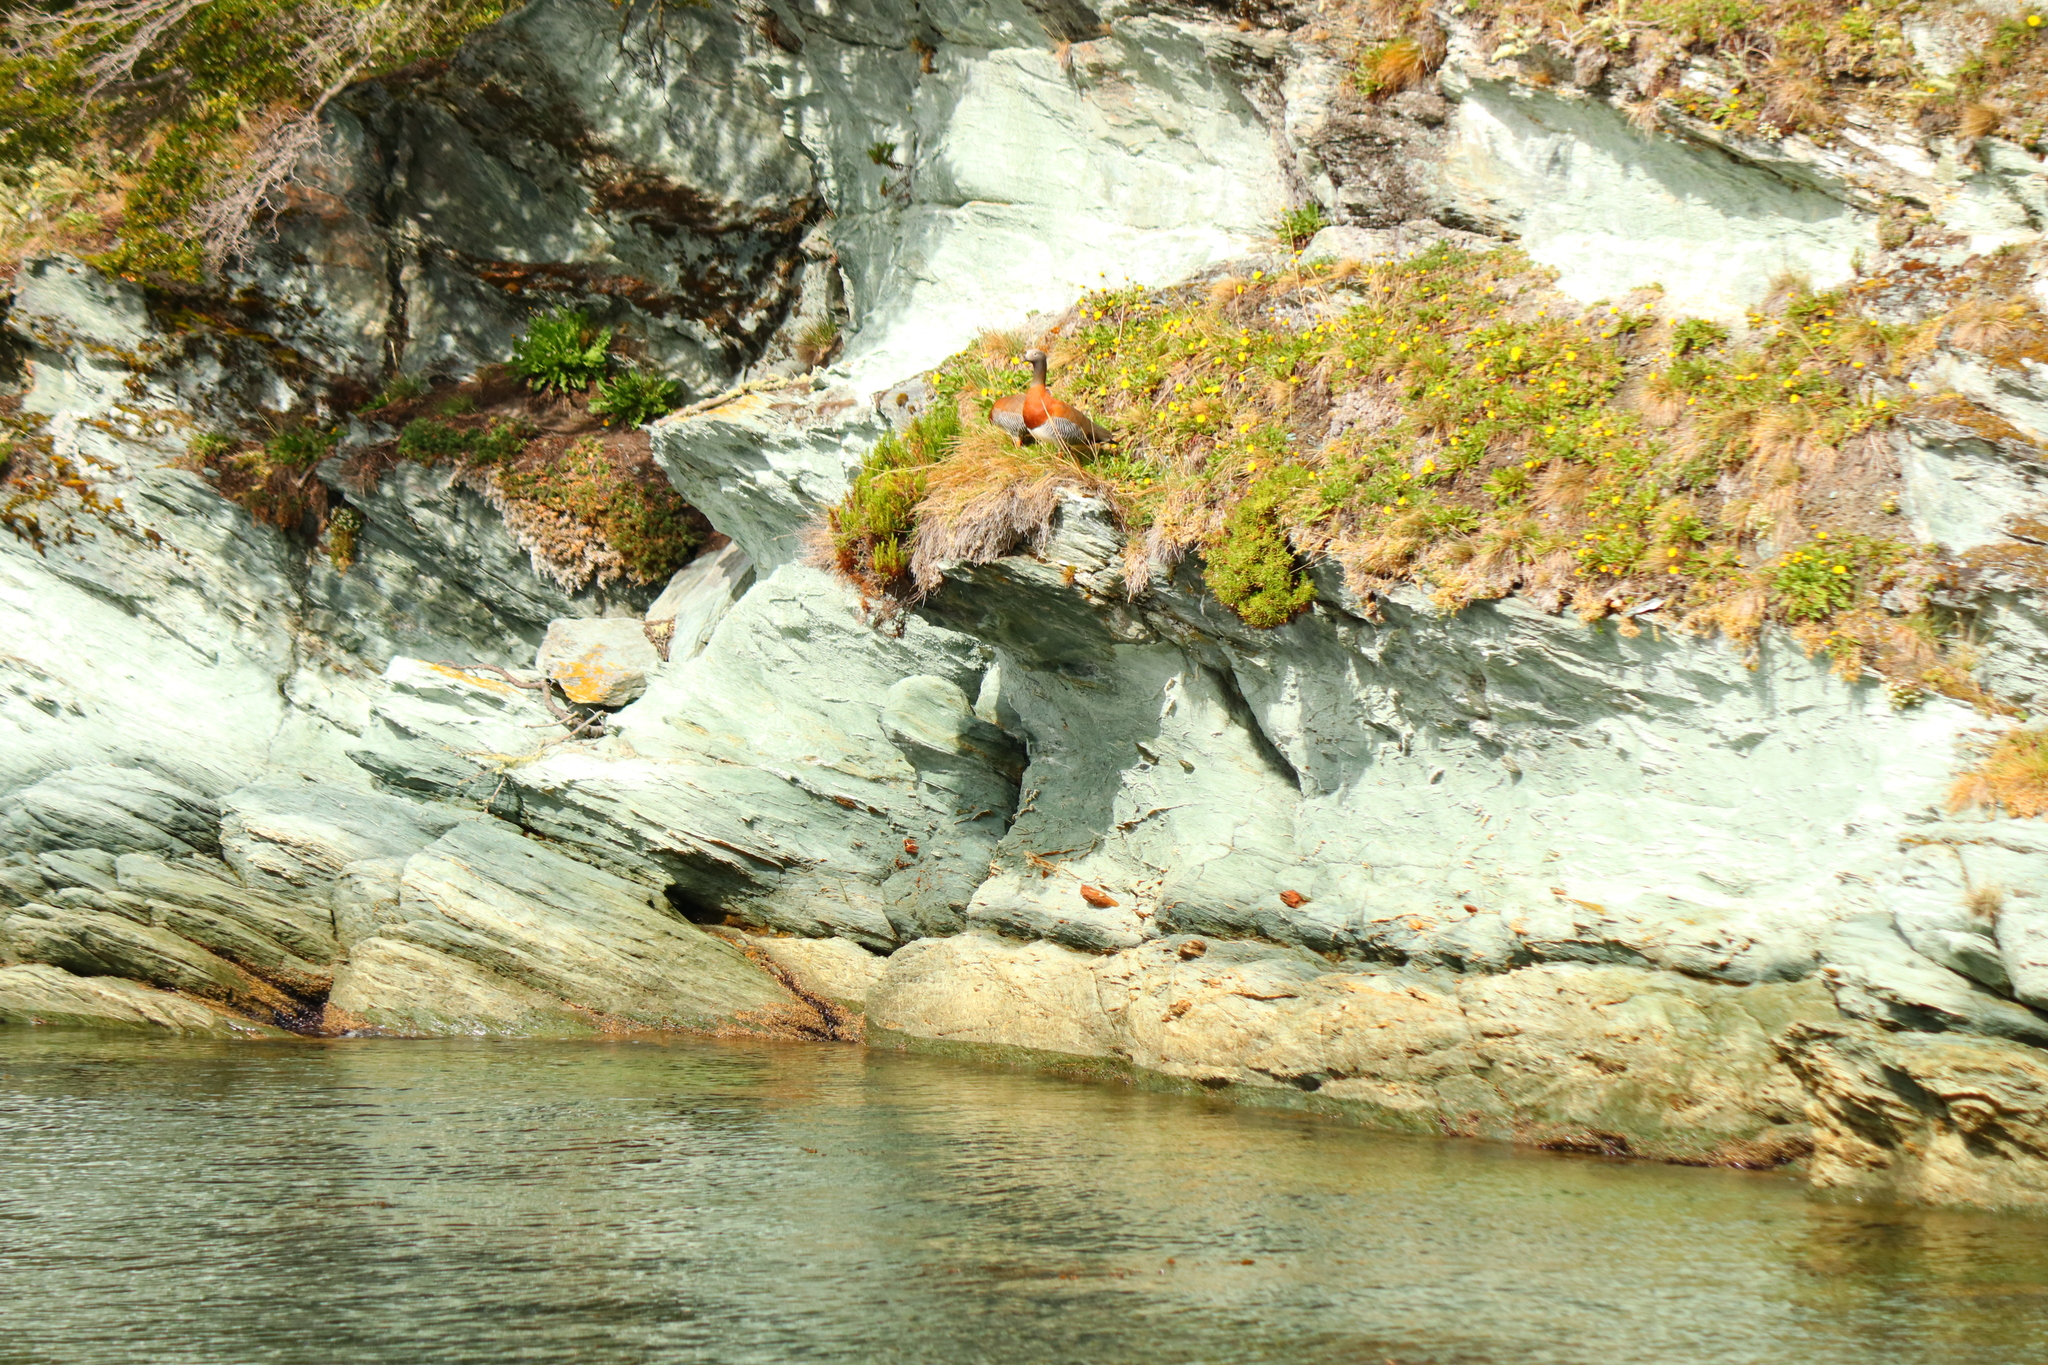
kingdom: Animalia
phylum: Chordata
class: Aves
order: Anseriformes
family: Anatidae
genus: Chloephaga
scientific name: Chloephaga poliocephala
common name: Ashy-headed goose
